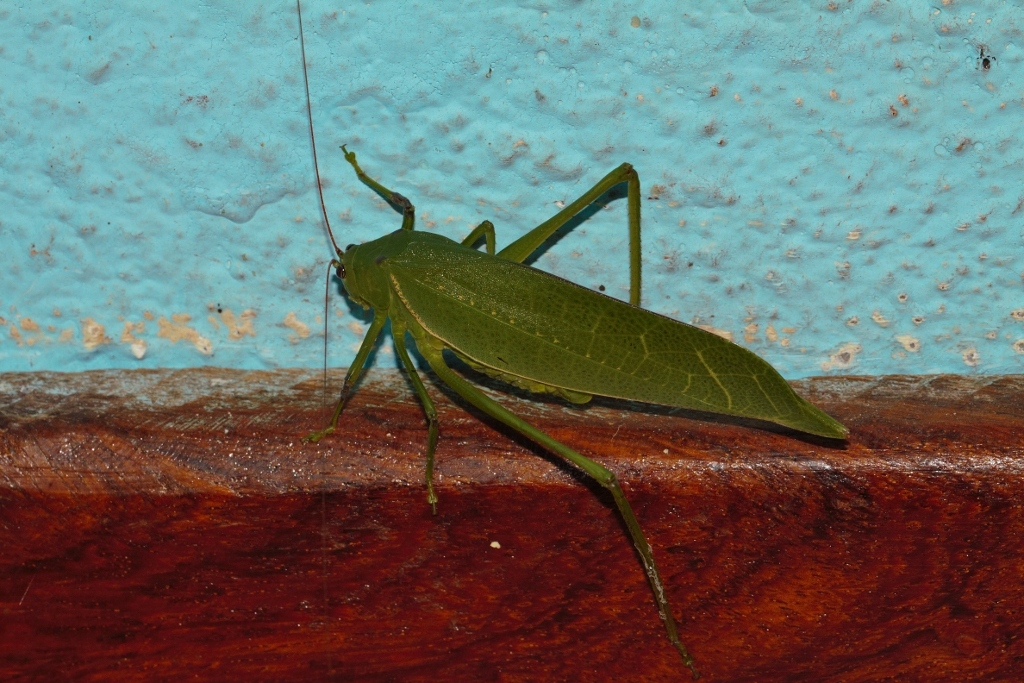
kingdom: Animalia
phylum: Arthropoda
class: Insecta
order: Orthoptera
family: Tettigoniidae
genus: Arantia
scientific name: Arantia tanzanica
